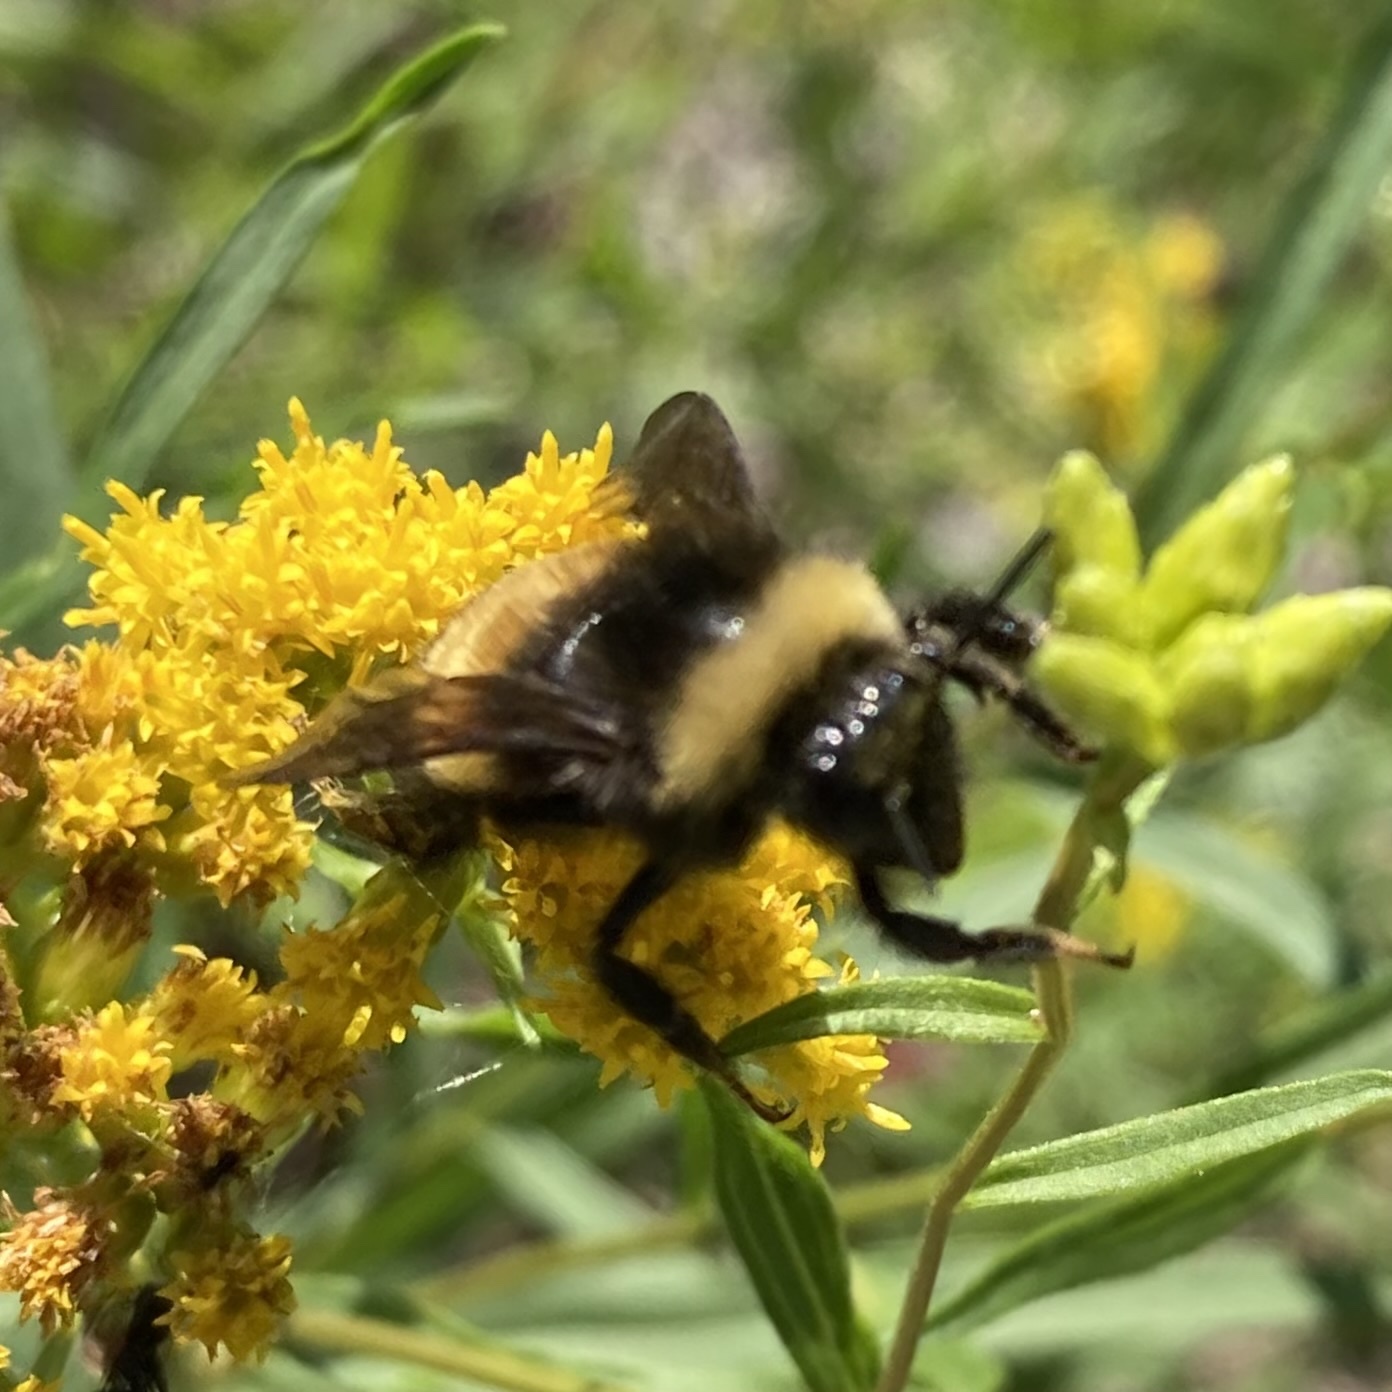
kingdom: Animalia
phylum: Arthropoda
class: Insecta
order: Hymenoptera
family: Apidae
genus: Bombus
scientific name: Bombus terricola
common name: Yellow-banded bumble bee
